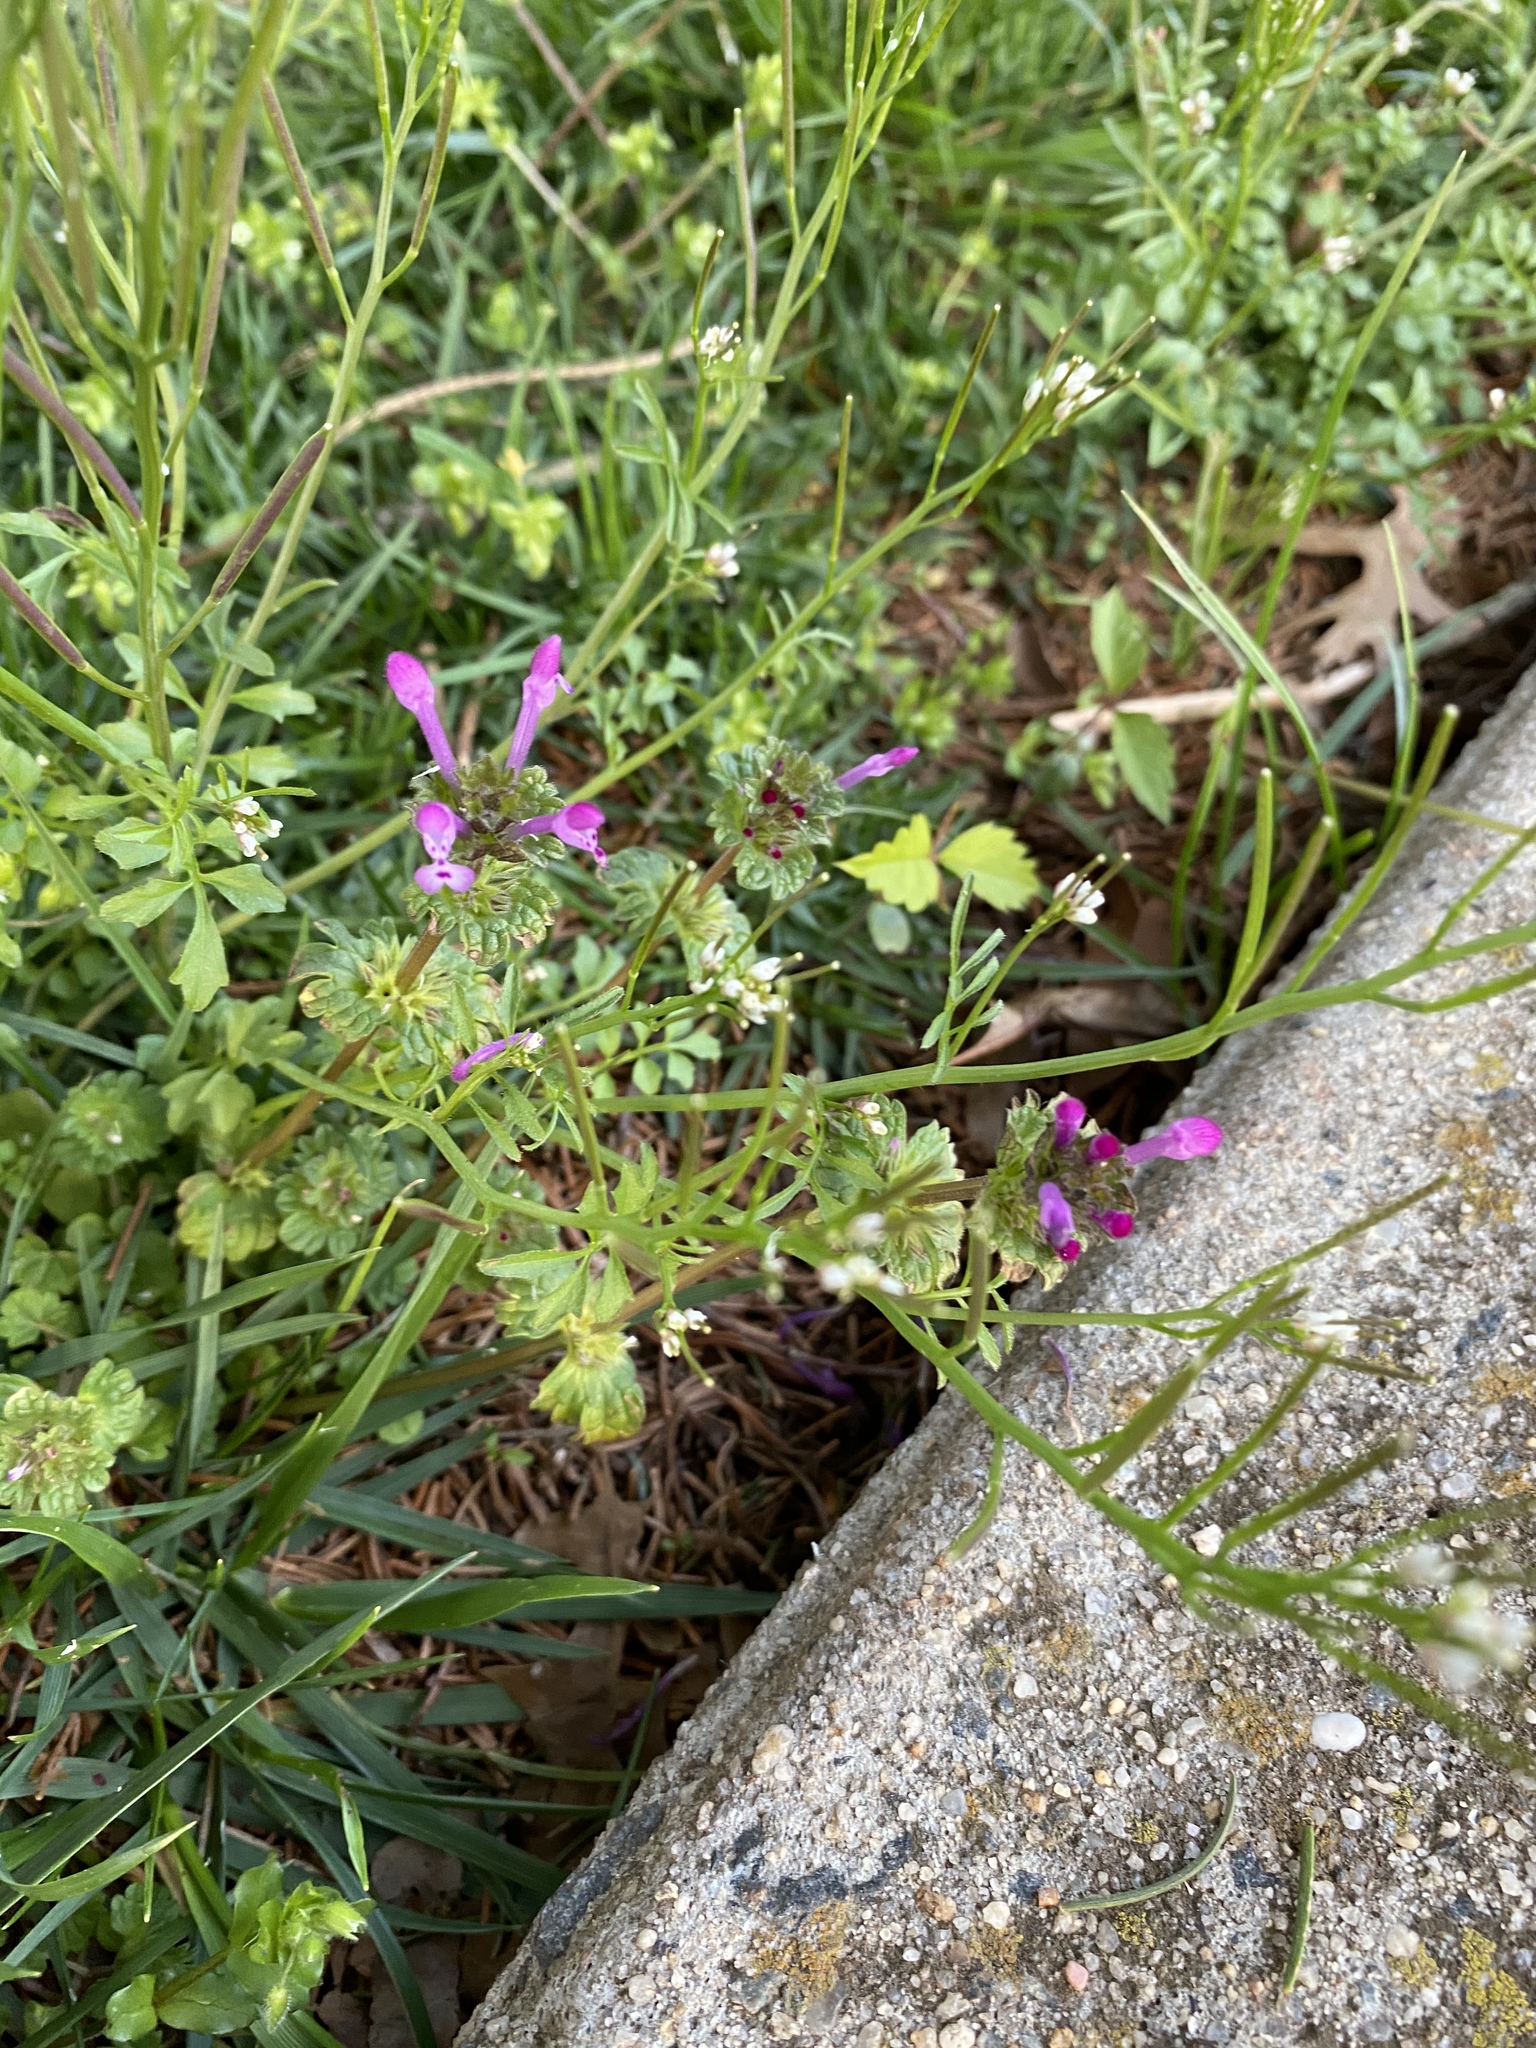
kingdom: Plantae
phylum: Tracheophyta
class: Magnoliopsida
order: Lamiales
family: Lamiaceae
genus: Lamium
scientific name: Lamium amplexicaule
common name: Henbit dead-nettle
